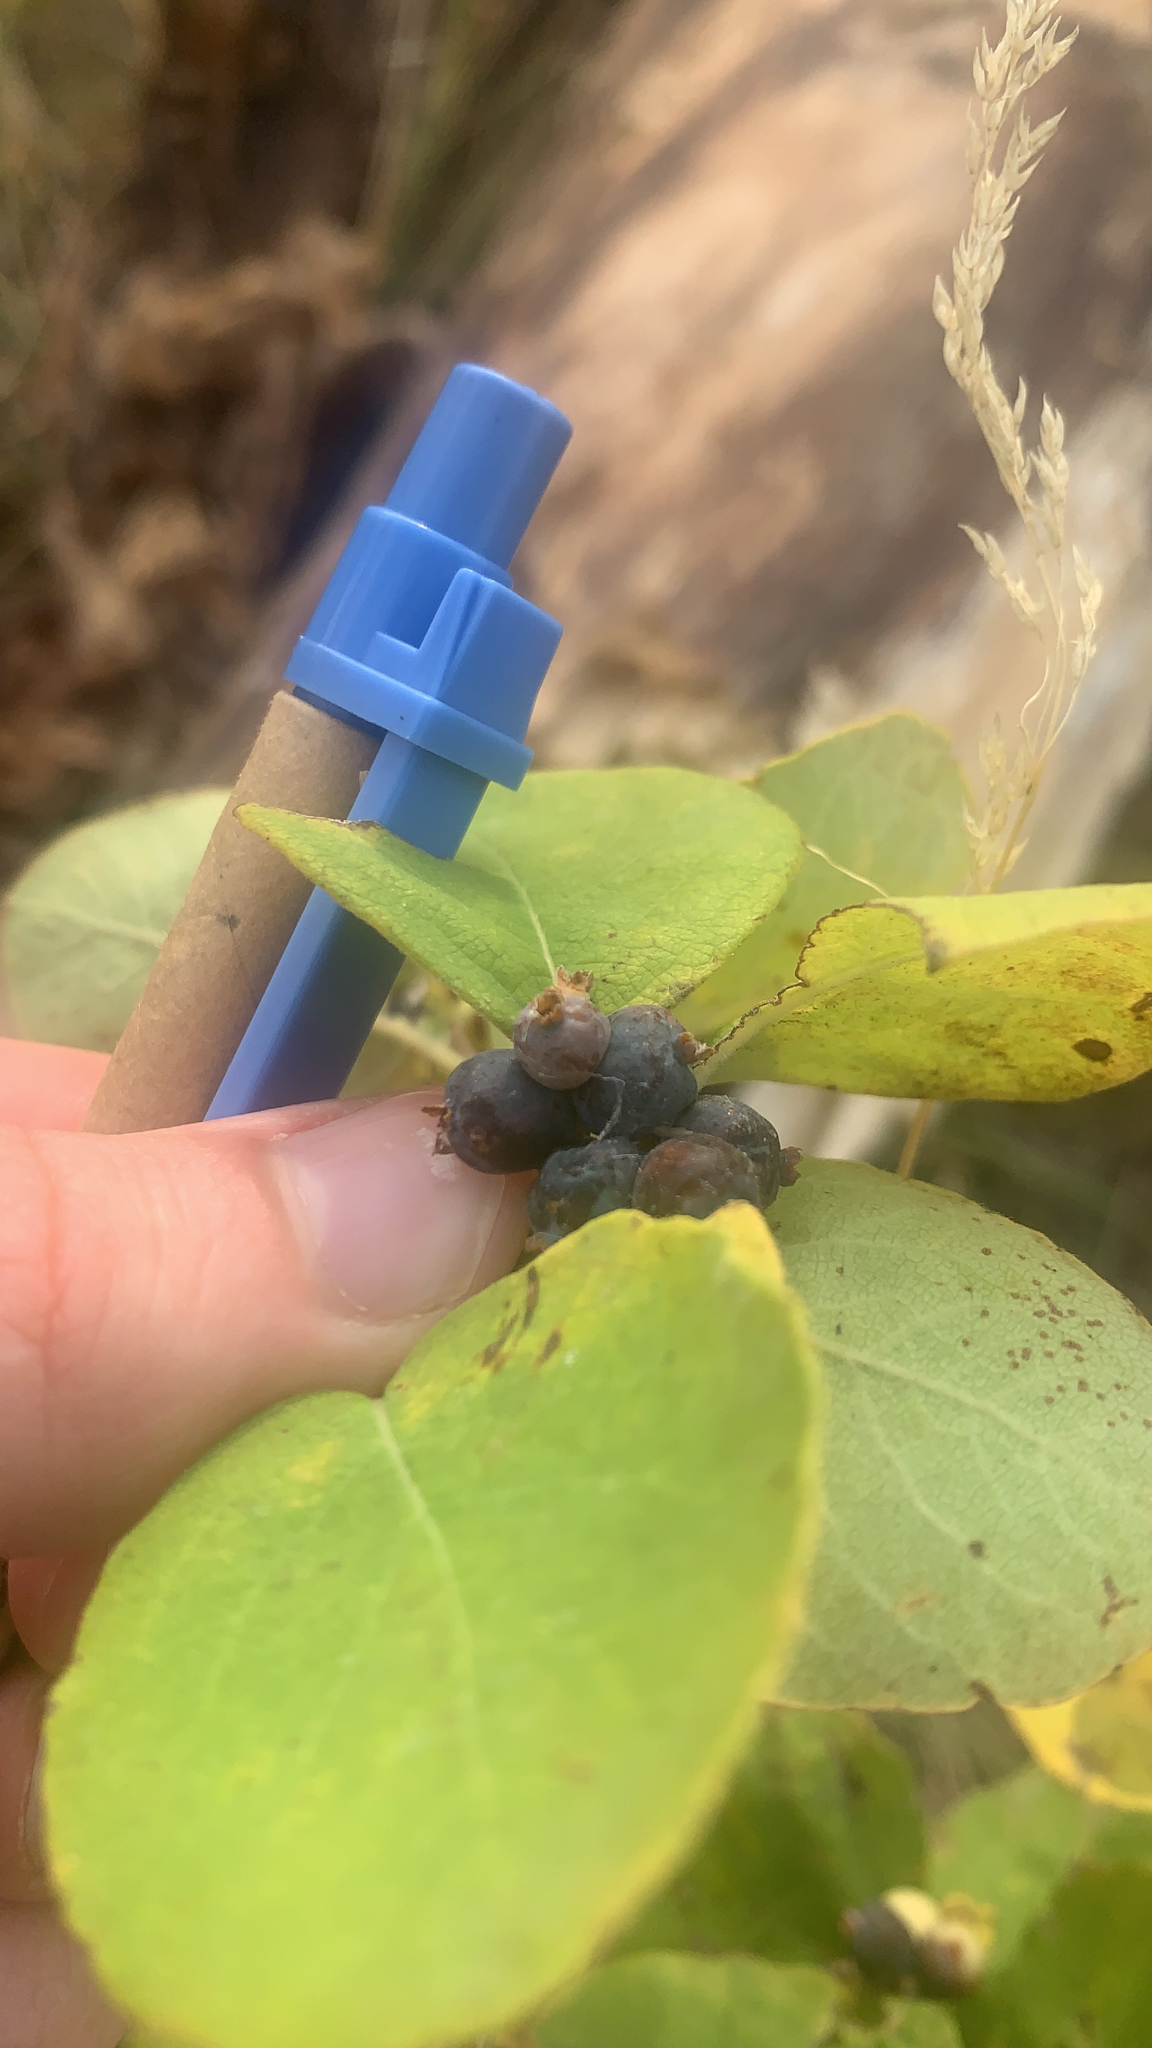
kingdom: Plantae
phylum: Tracheophyta
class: Magnoliopsida
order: Dipsacales
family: Caprifoliaceae
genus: Symphoricarpos
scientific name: Symphoricarpos occidentalis
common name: Wolfberry
